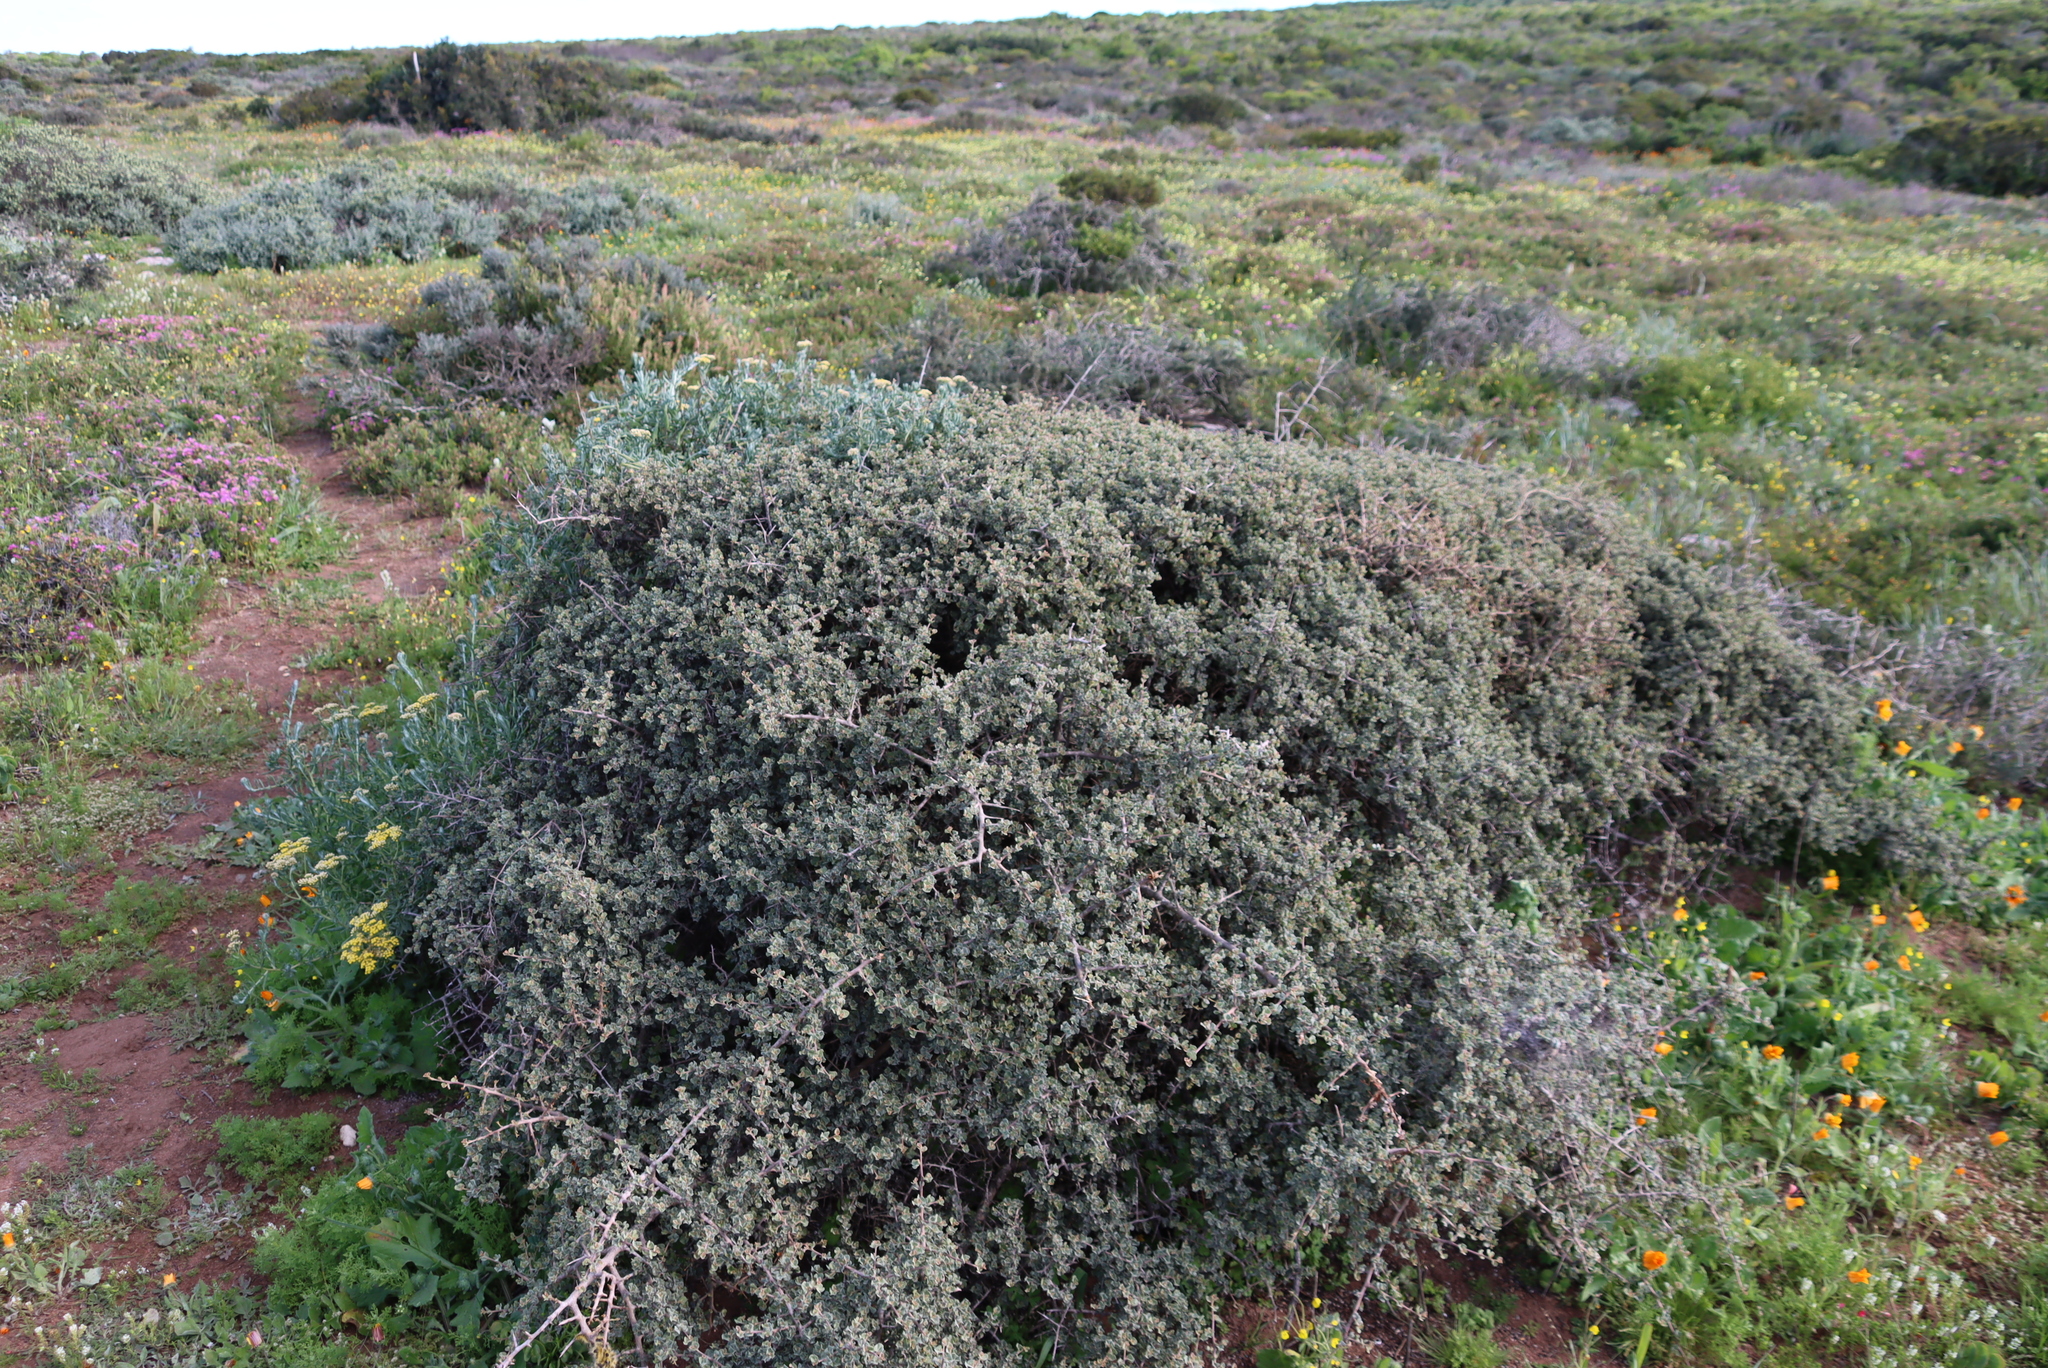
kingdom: Plantae
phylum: Tracheophyta
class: Magnoliopsida
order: Sapindales
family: Anacardiaceae
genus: Searsia
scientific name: Searsia glauca
